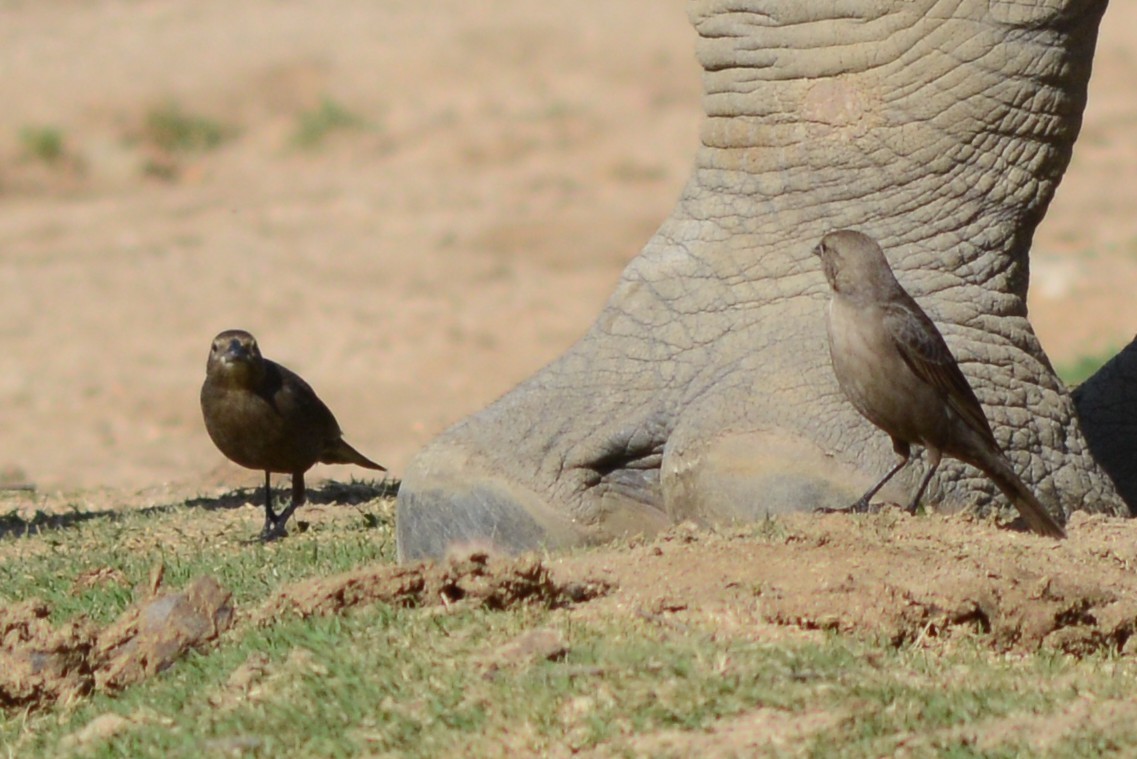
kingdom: Animalia
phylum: Chordata
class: Aves
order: Passeriformes
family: Icteridae
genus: Euphagus
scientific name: Euphagus cyanocephalus
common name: Brewer's blackbird
